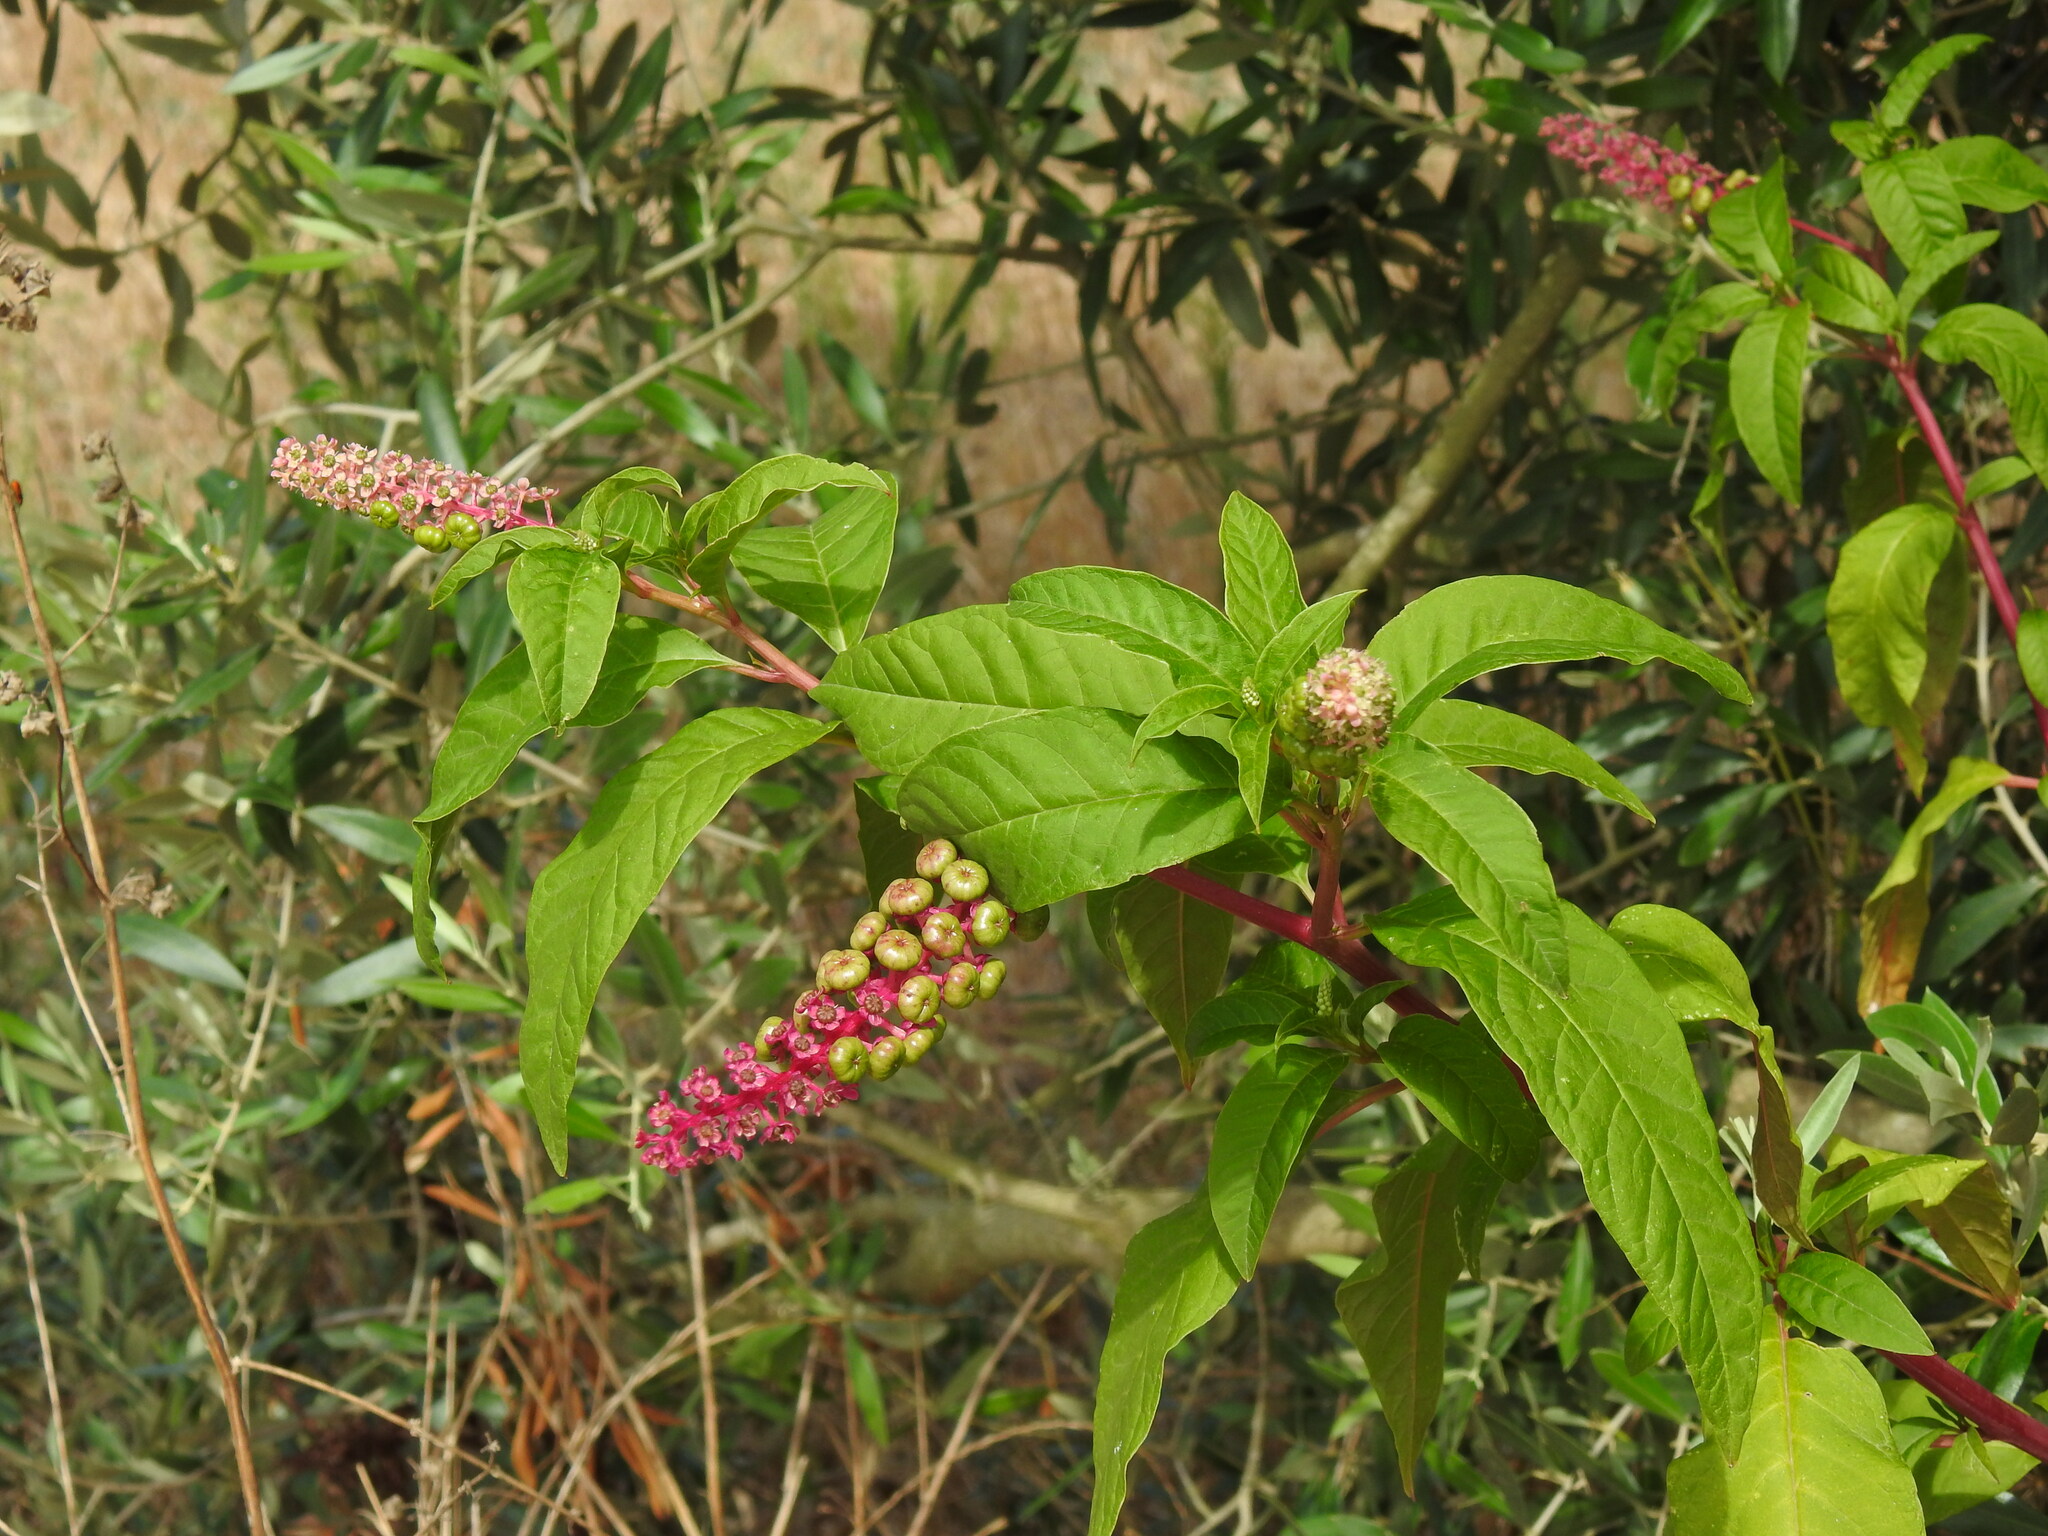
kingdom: Plantae
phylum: Tracheophyta
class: Magnoliopsida
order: Caryophyllales
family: Phytolaccaceae
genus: Phytolacca
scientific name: Phytolacca americana
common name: American pokeweed
